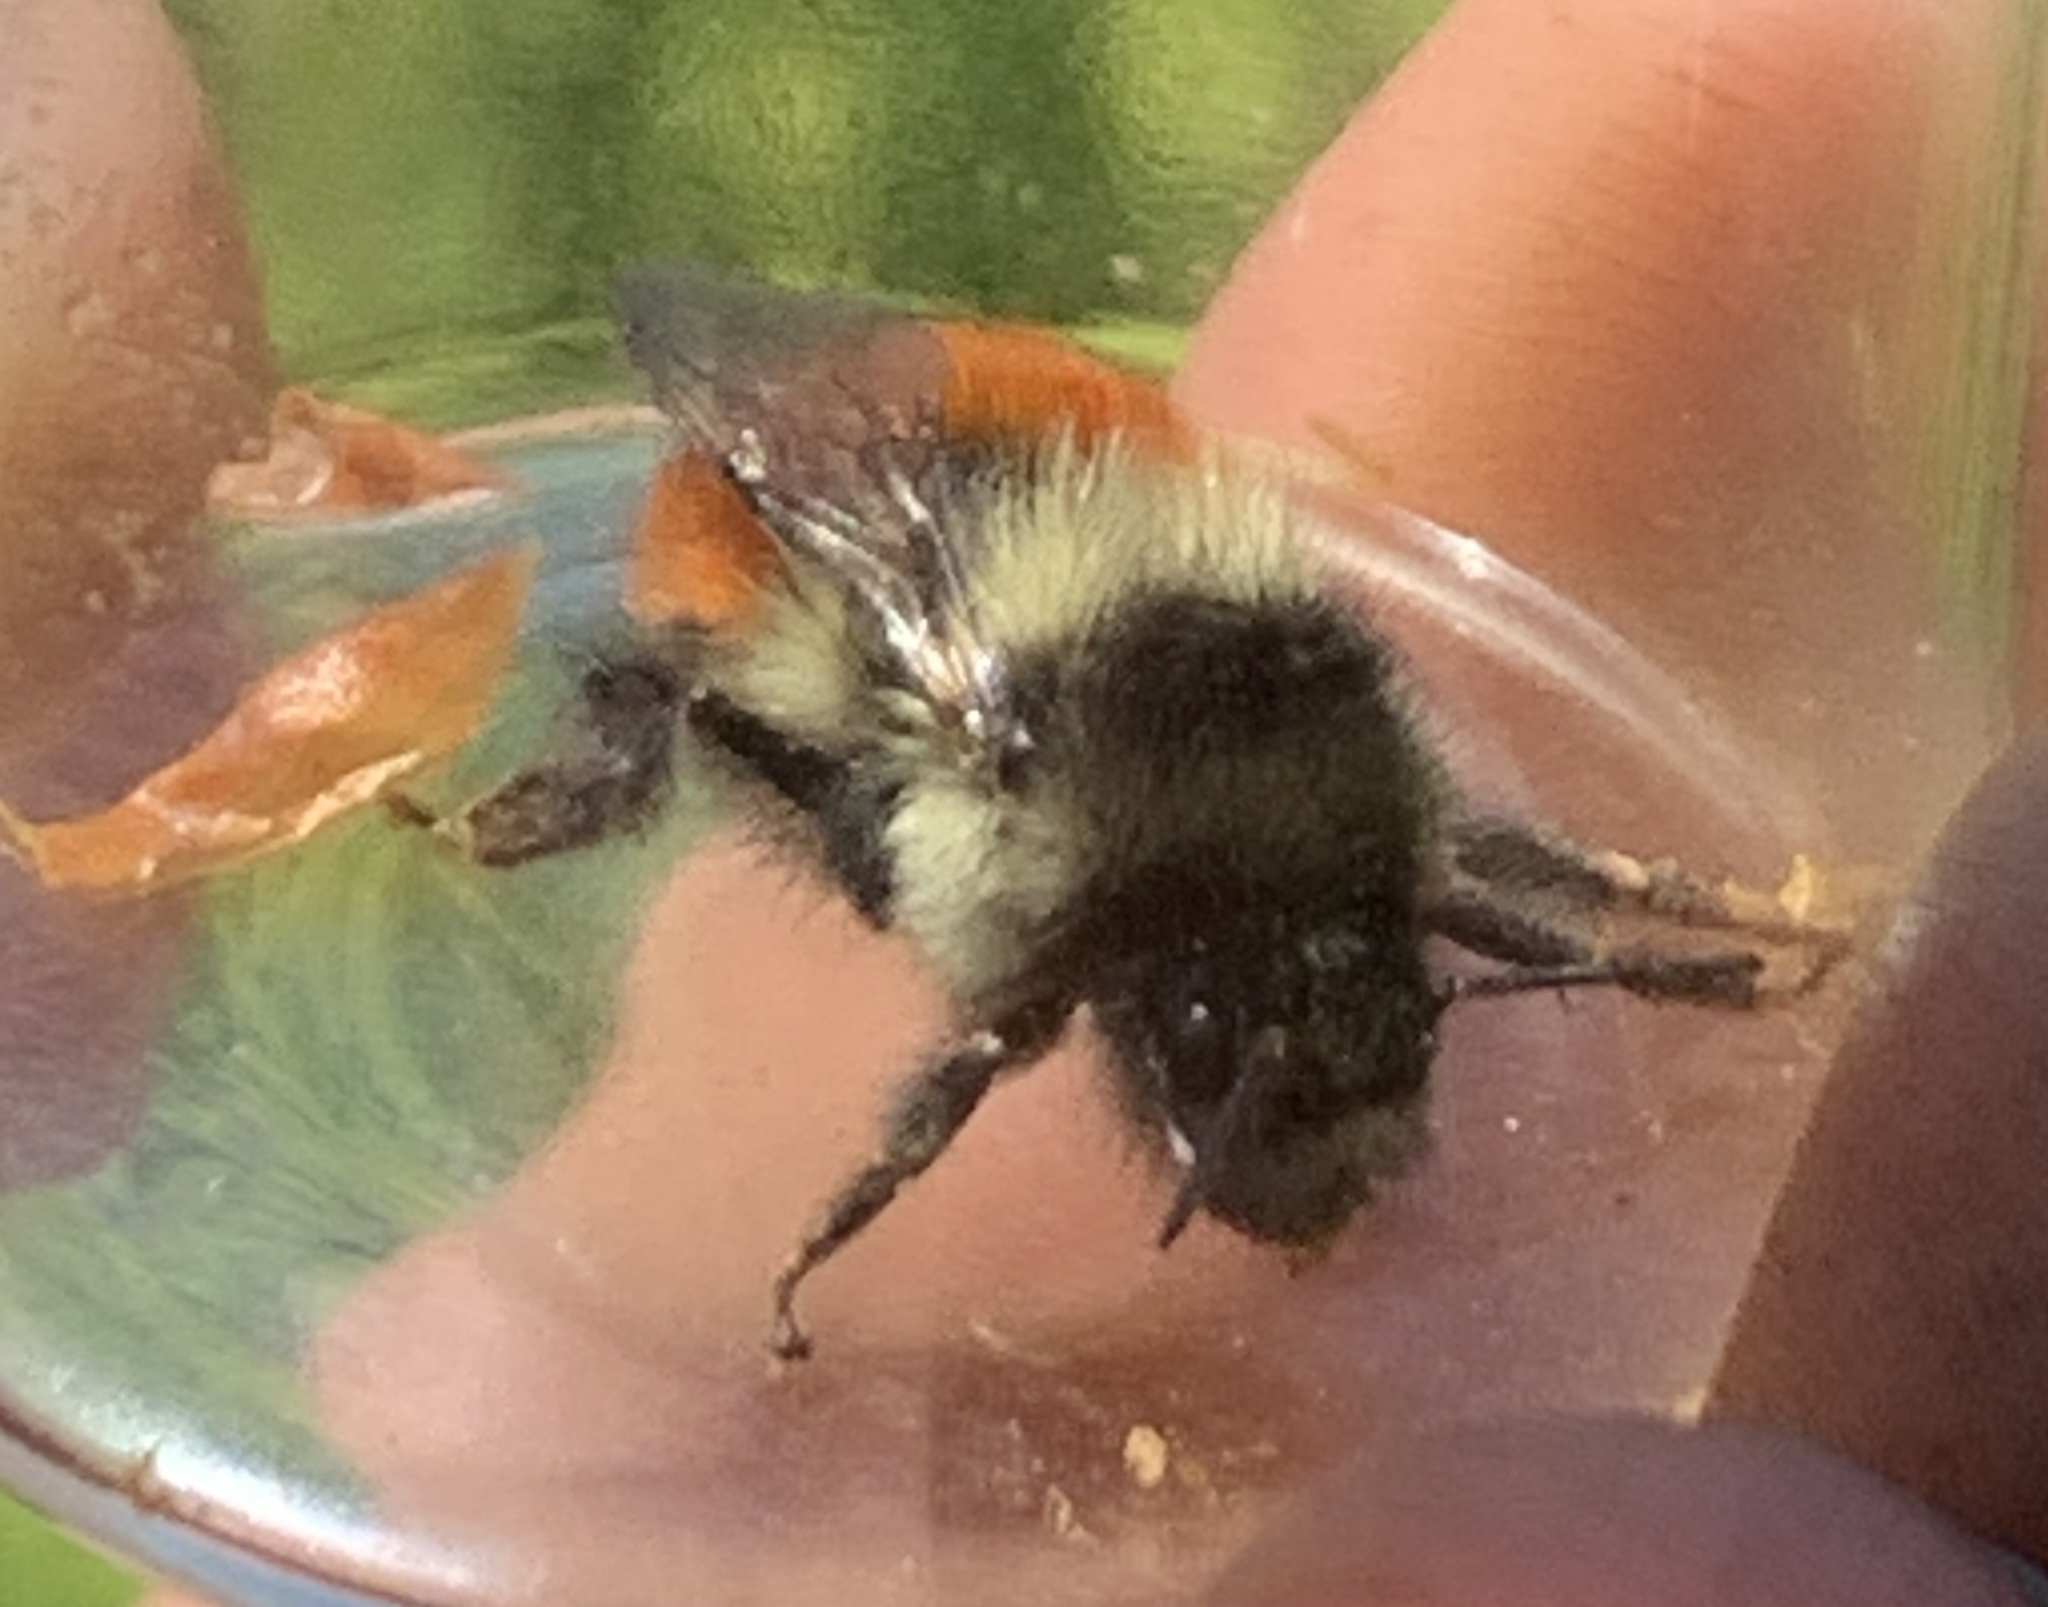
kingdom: Animalia
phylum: Arthropoda
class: Insecta
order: Hymenoptera
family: Apidae
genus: Bombus
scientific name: Bombus melanopygus
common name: Black tail bumble bee
